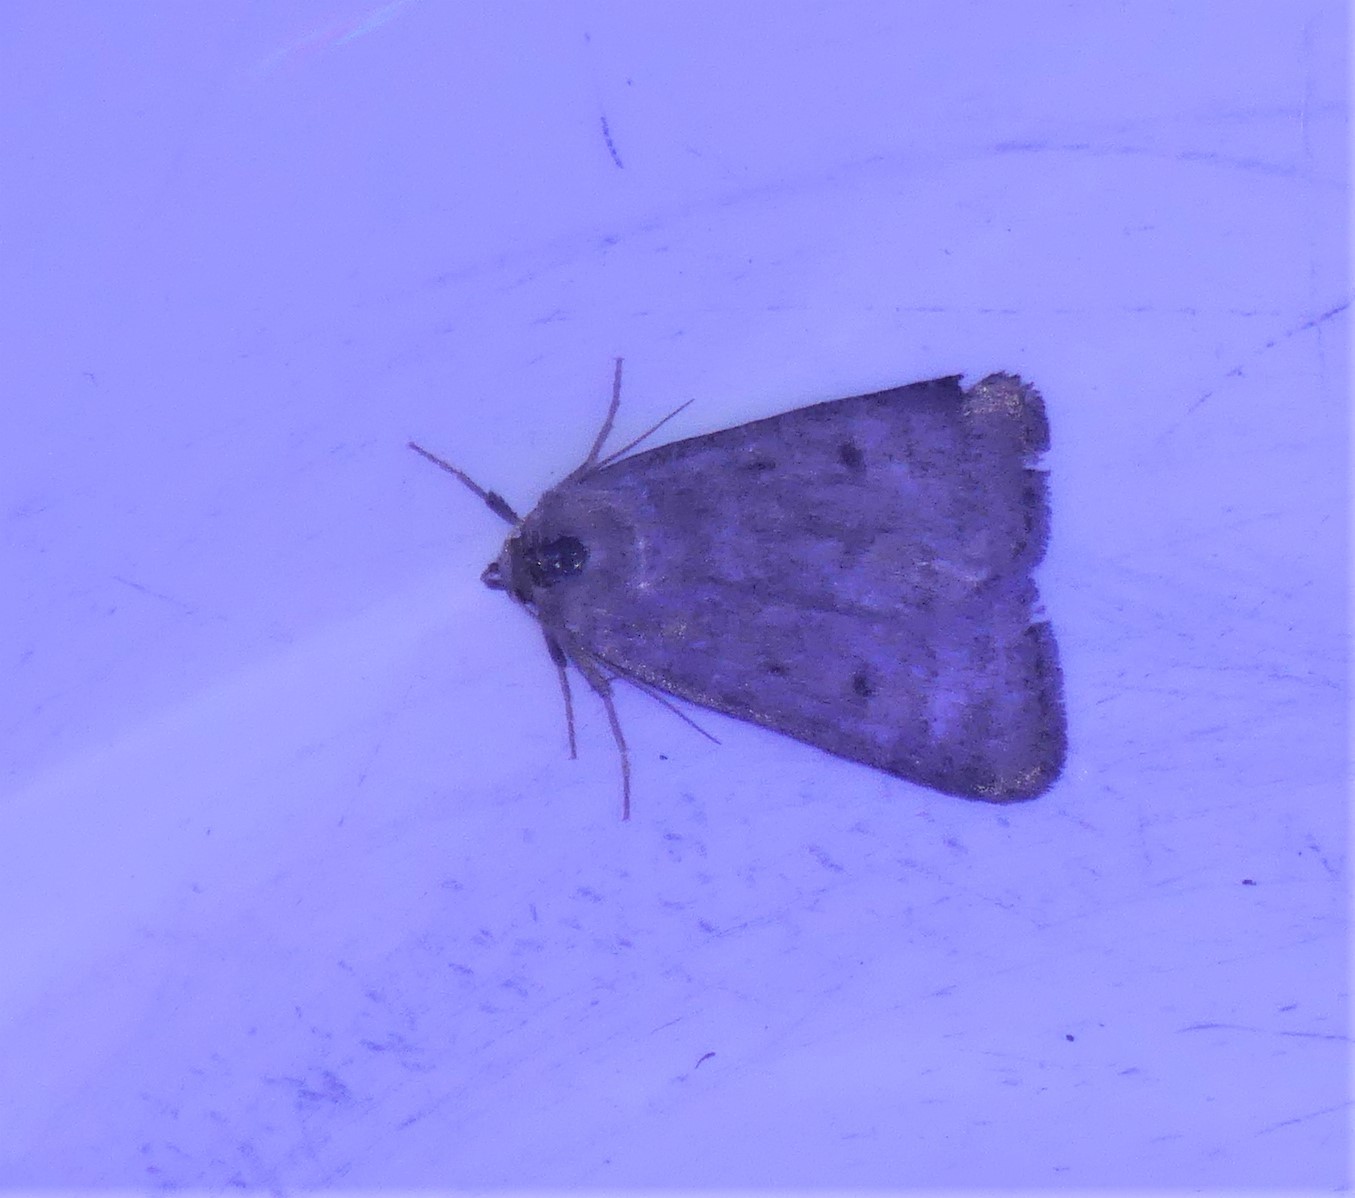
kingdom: Animalia
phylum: Arthropoda
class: Insecta
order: Lepidoptera
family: Noctuidae
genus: Athetis
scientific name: Athetis pallustris
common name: Marsh moth
